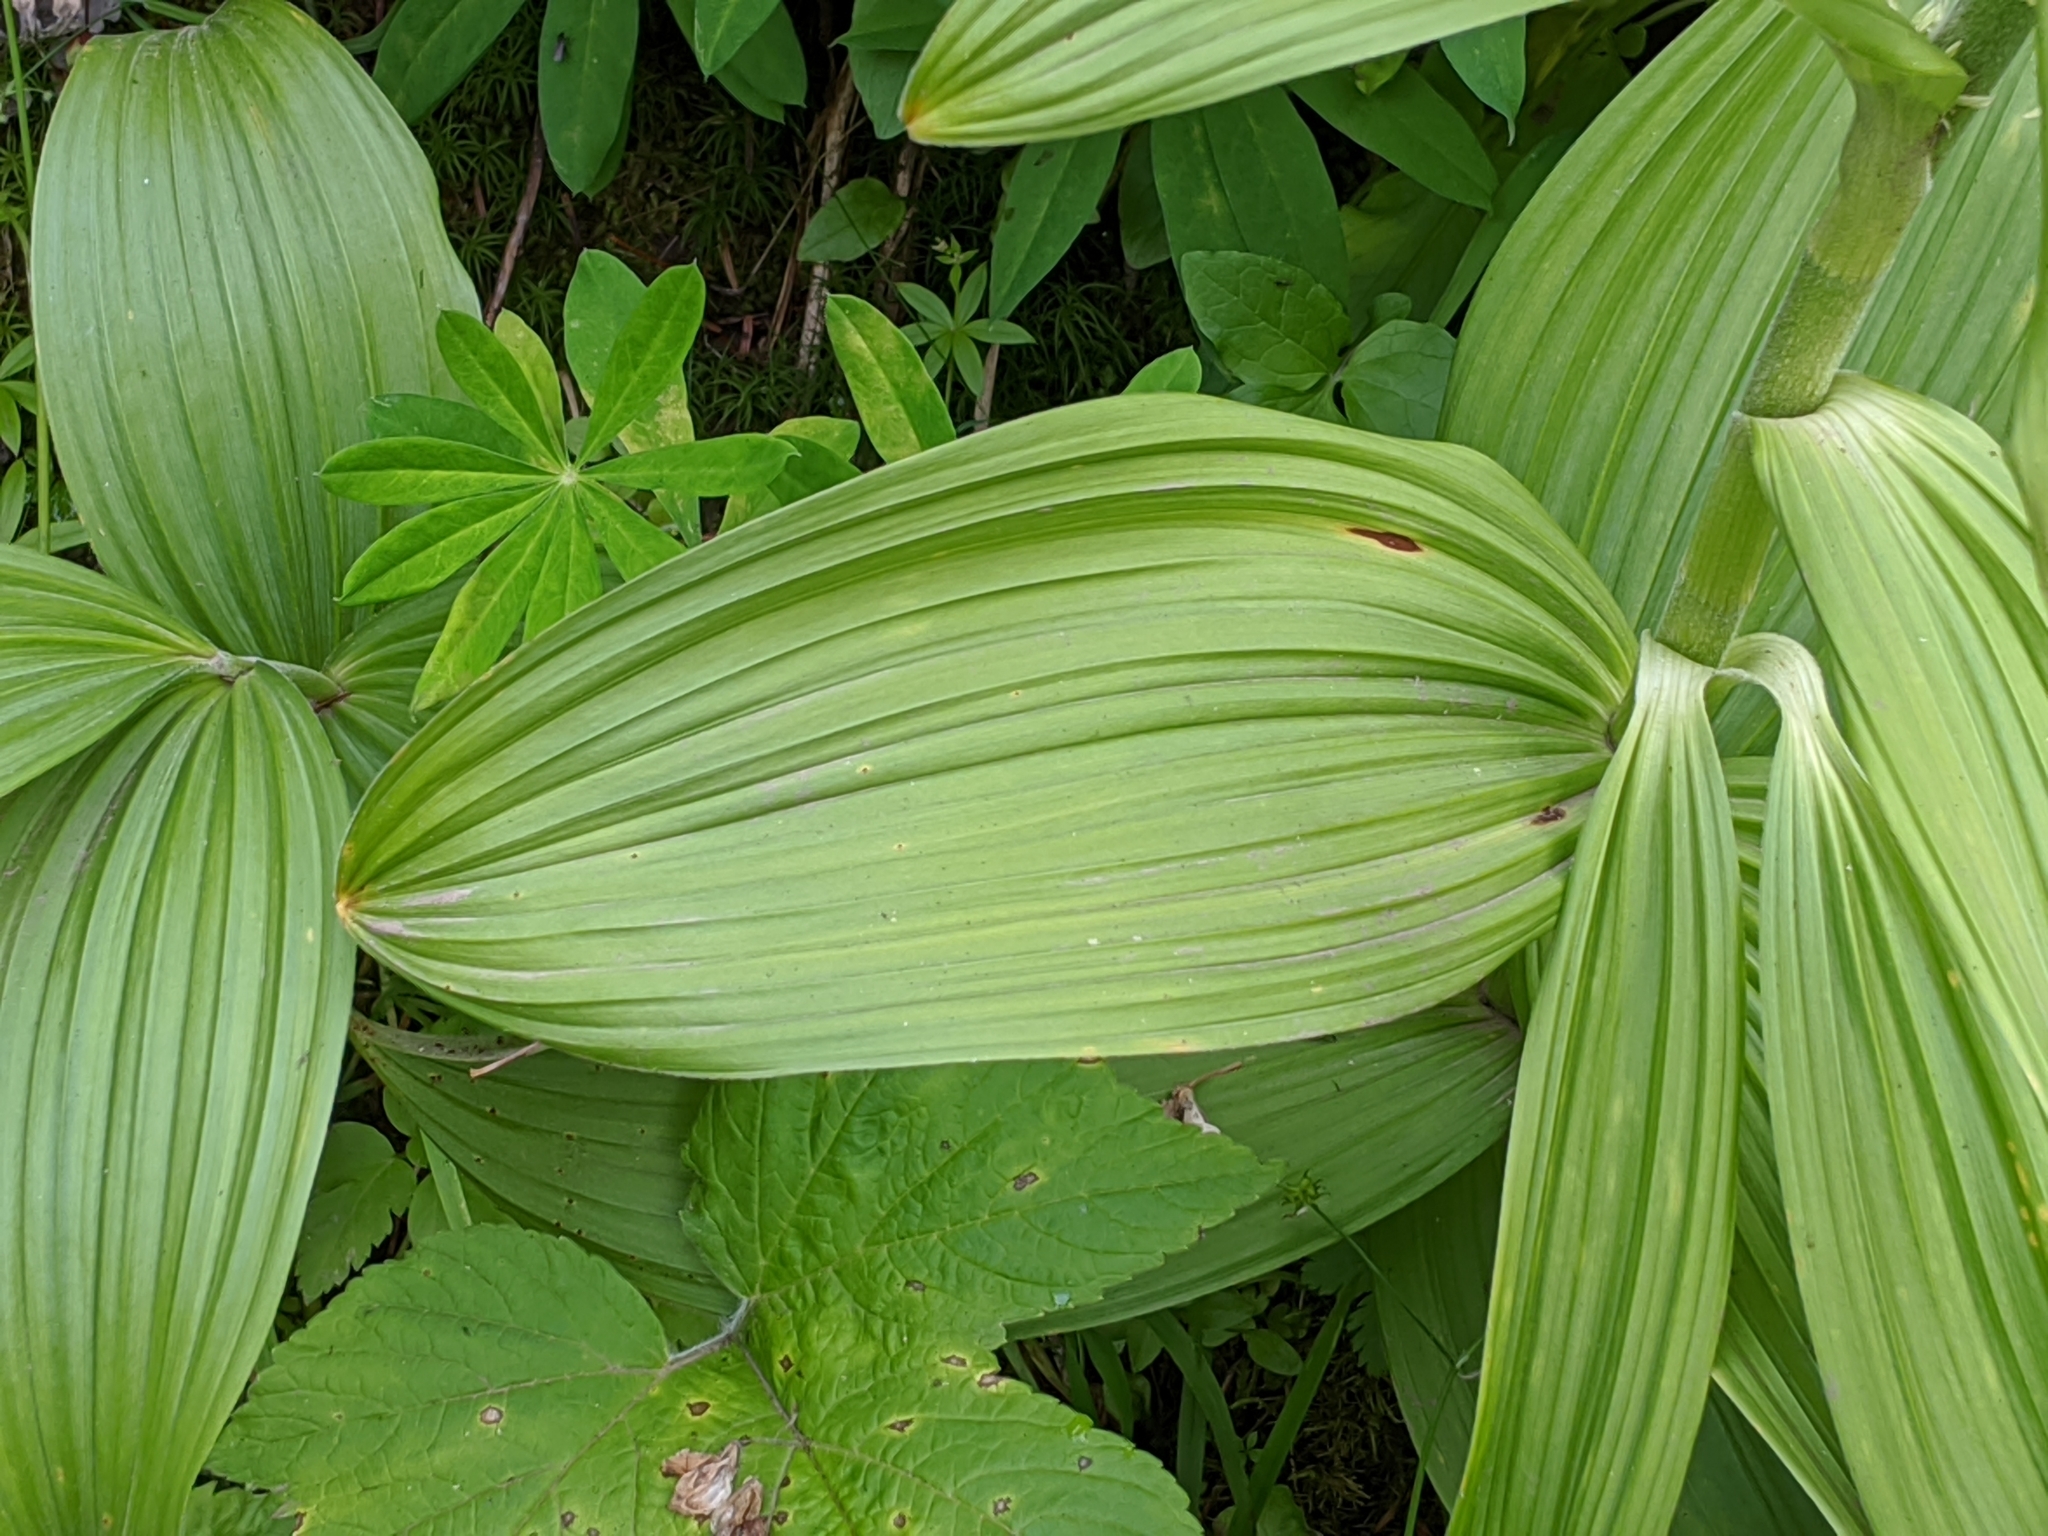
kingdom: Plantae
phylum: Tracheophyta
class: Liliopsida
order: Liliales
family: Melanthiaceae
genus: Veratrum
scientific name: Veratrum viride
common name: American false hellebore
